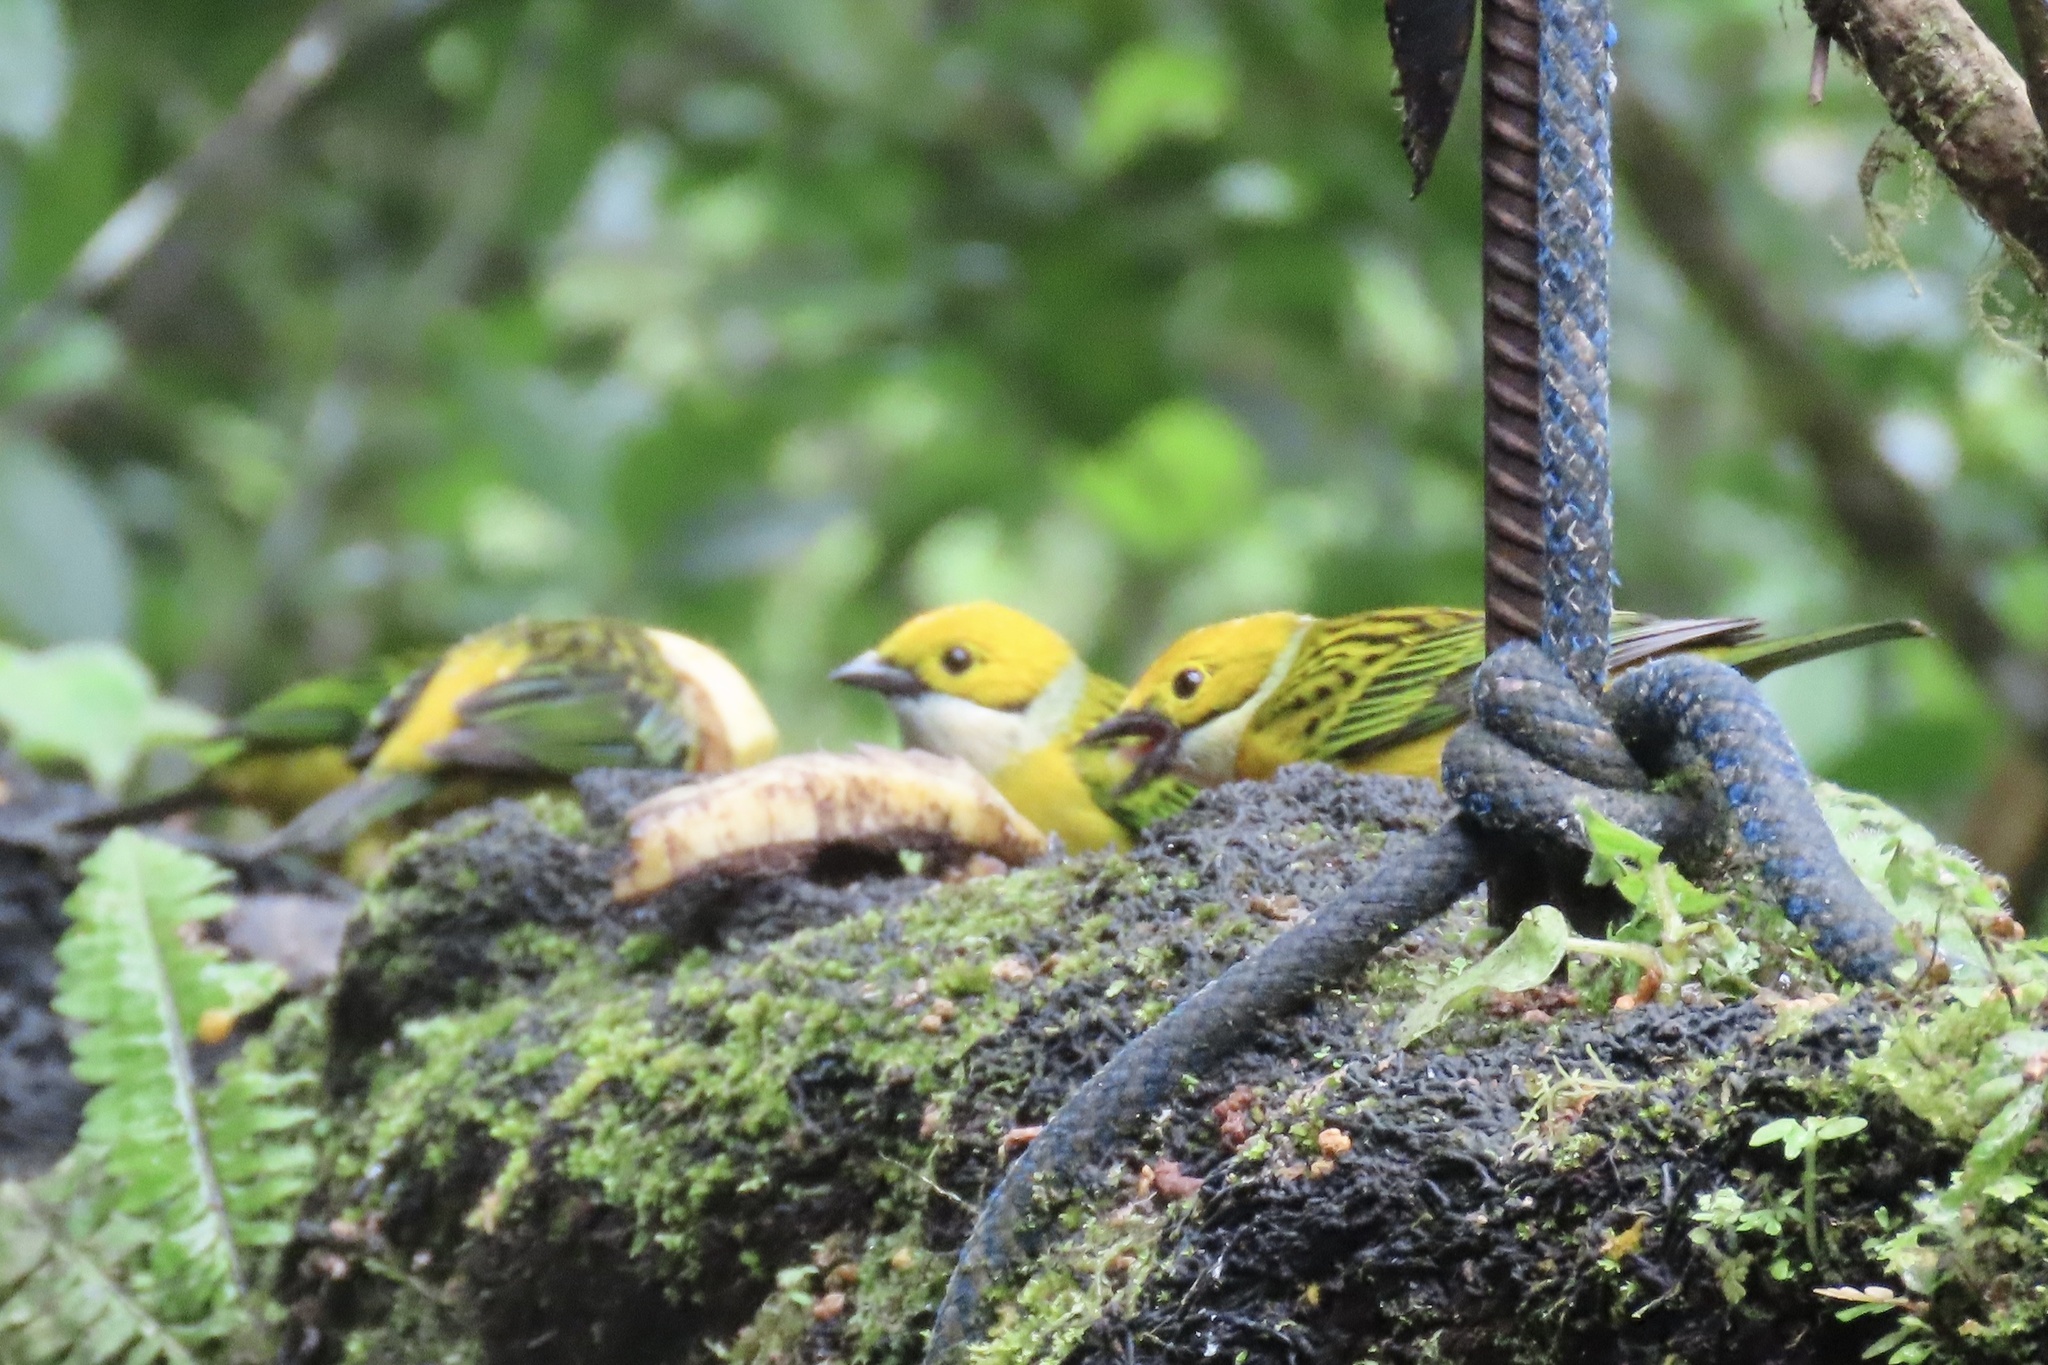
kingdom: Animalia
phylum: Chordata
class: Aves
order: Passeriformes
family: Thraupidae
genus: Tangara
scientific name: Tangara icterocephala
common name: Silver-throated tanager
